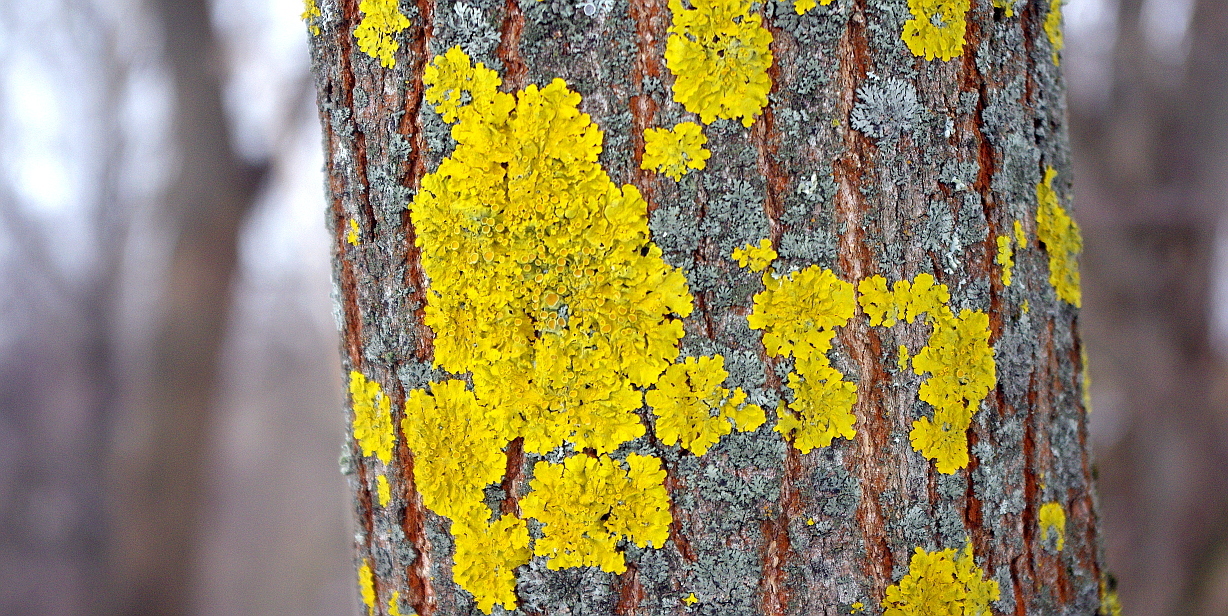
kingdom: Fungi
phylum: Ascomycota
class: Lecanoromycetes
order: Teloschistales
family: Teloschistaceae
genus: Xanthoria
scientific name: Xanthoria parietina
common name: Common orange lichen
